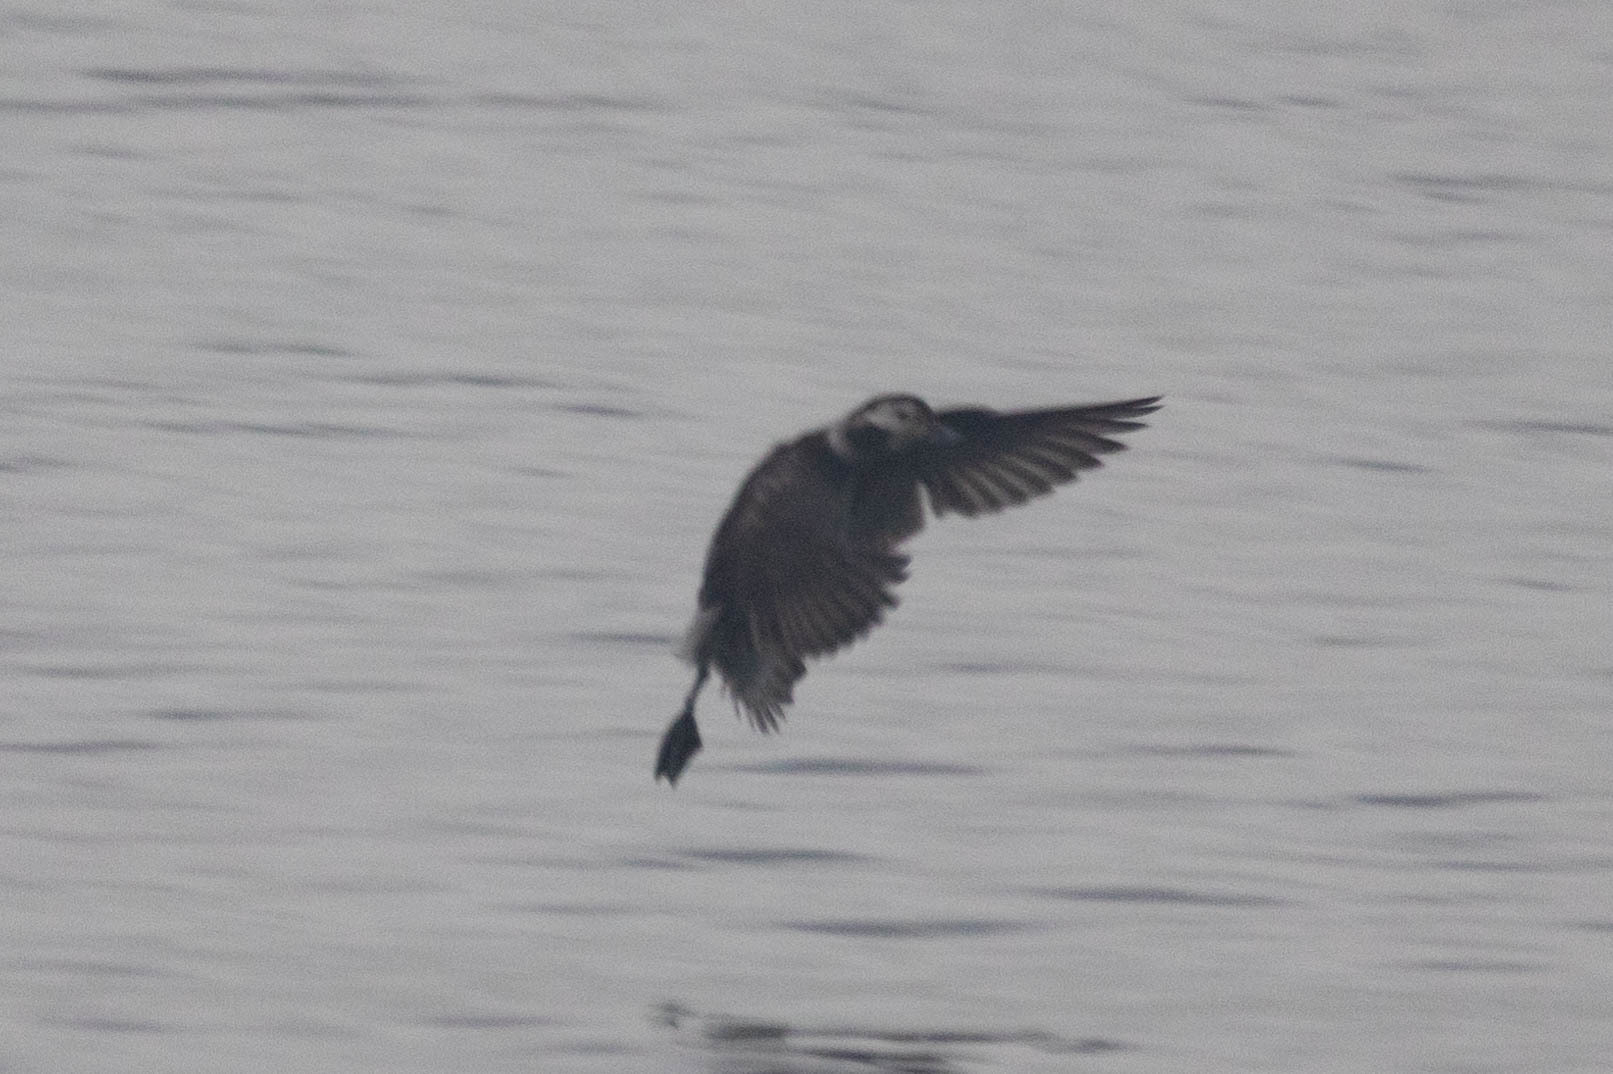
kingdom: Animalia
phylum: Chordata
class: Aves
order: Anseriformes
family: Anatidae
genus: Clangula
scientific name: Clangula hyemalis
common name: Long-tailed duck
